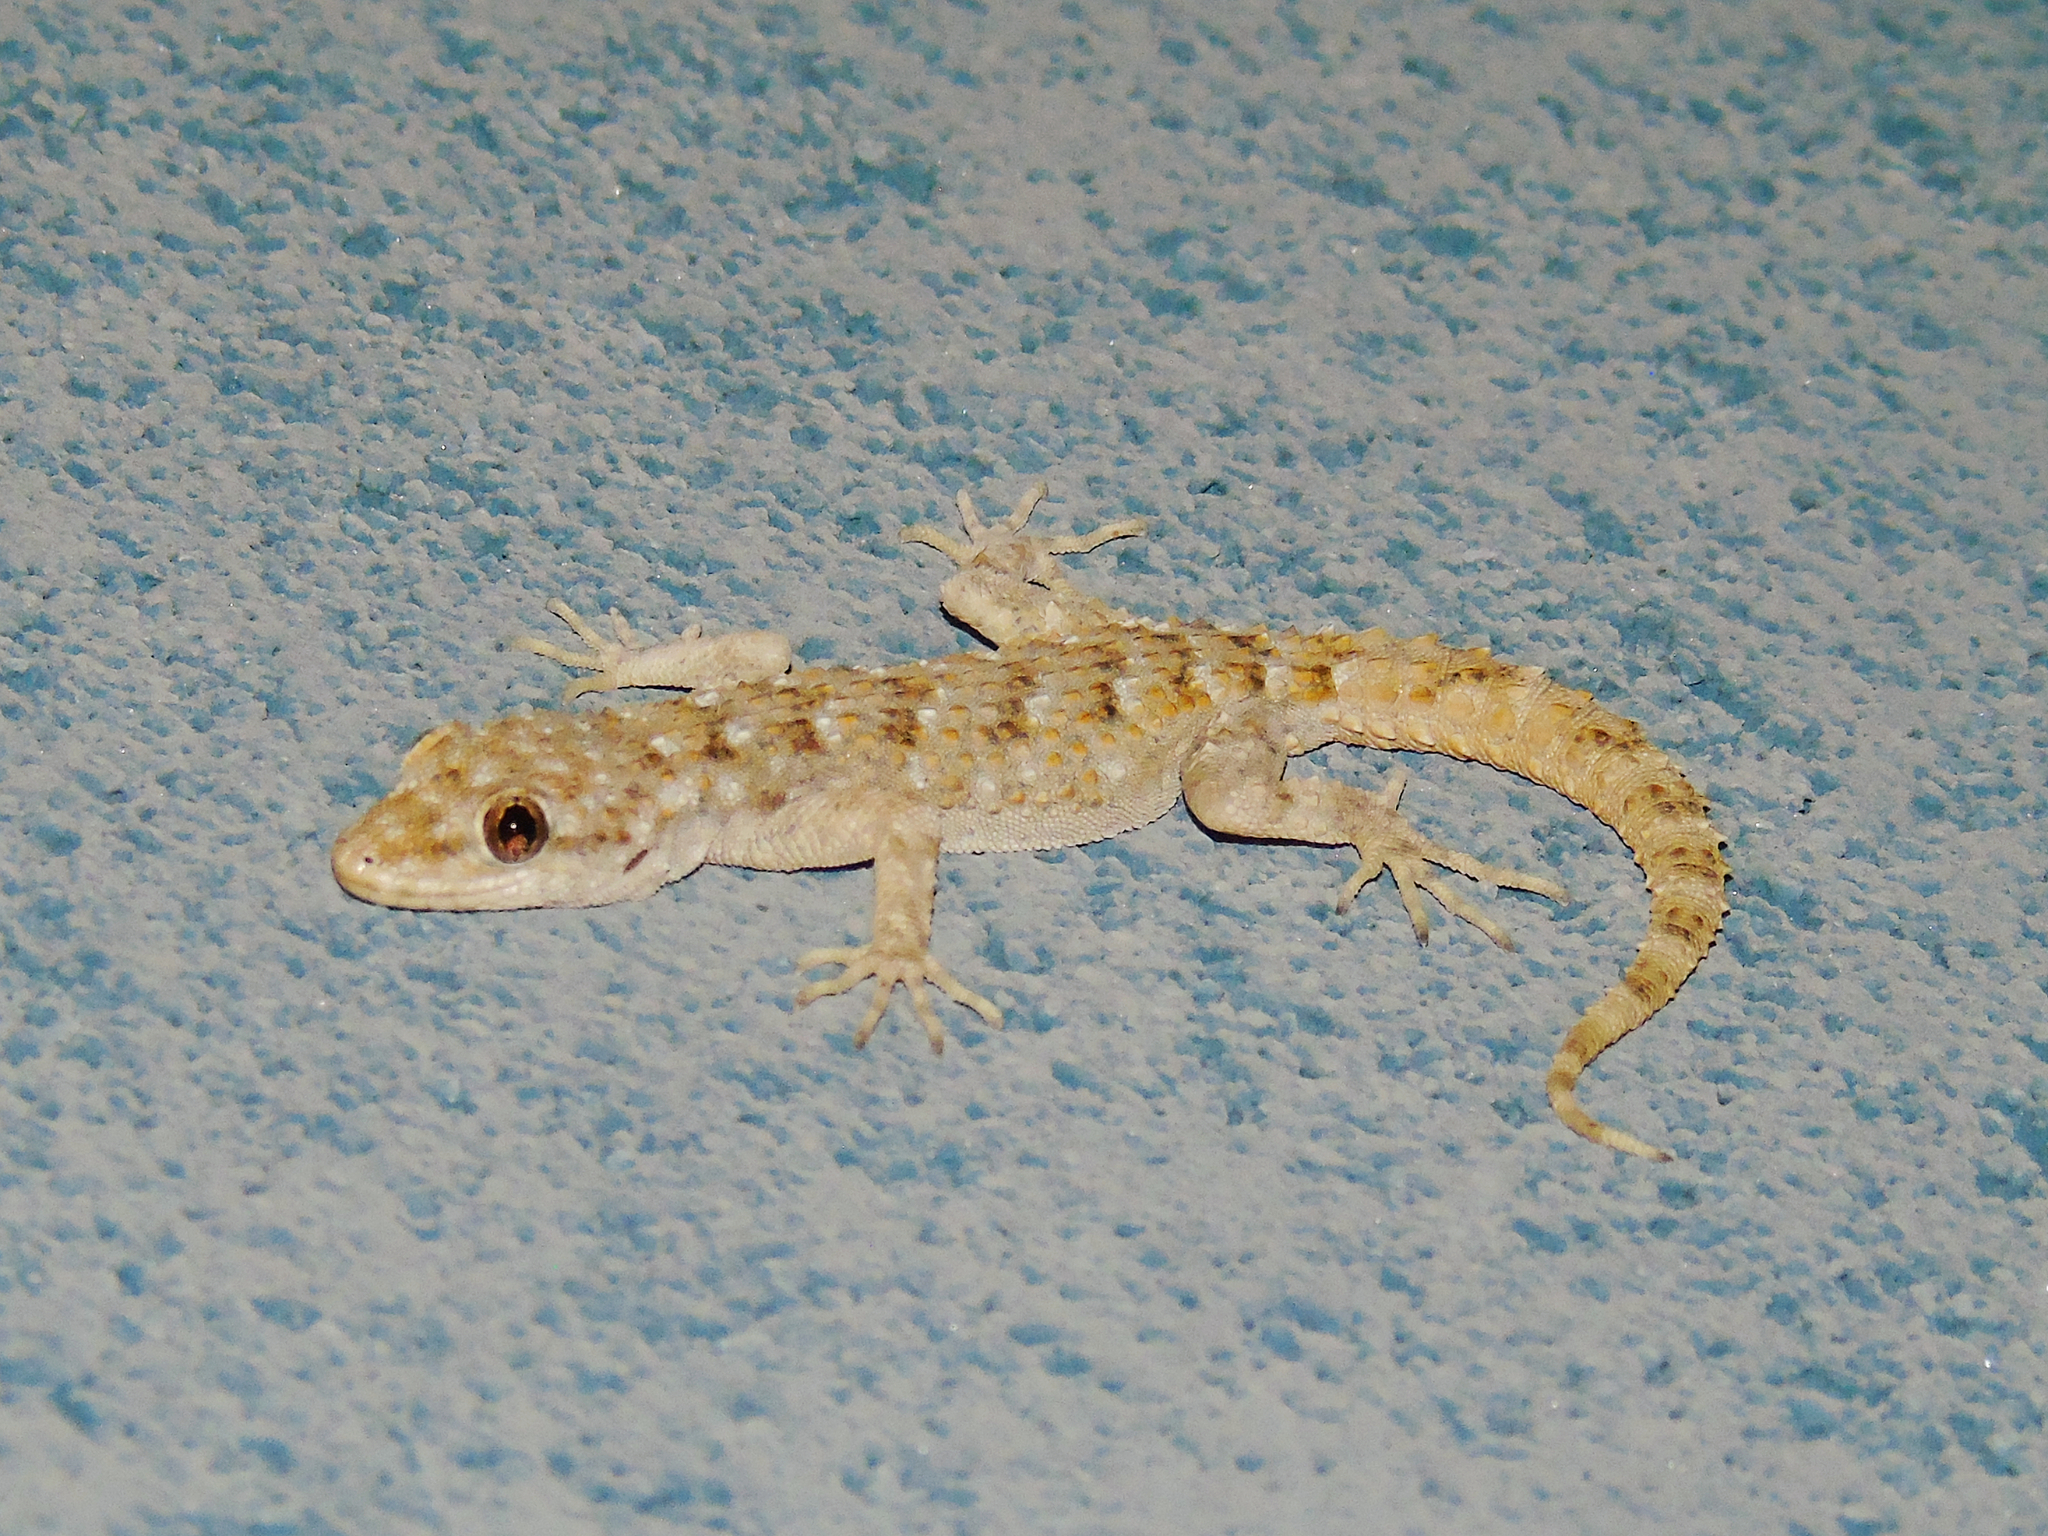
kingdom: Animalia
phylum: Chordata
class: Squamata
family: Gekkonidae
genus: Mediodactylus
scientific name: Mediodactylus kotschyi
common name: Kotschy's gecko
